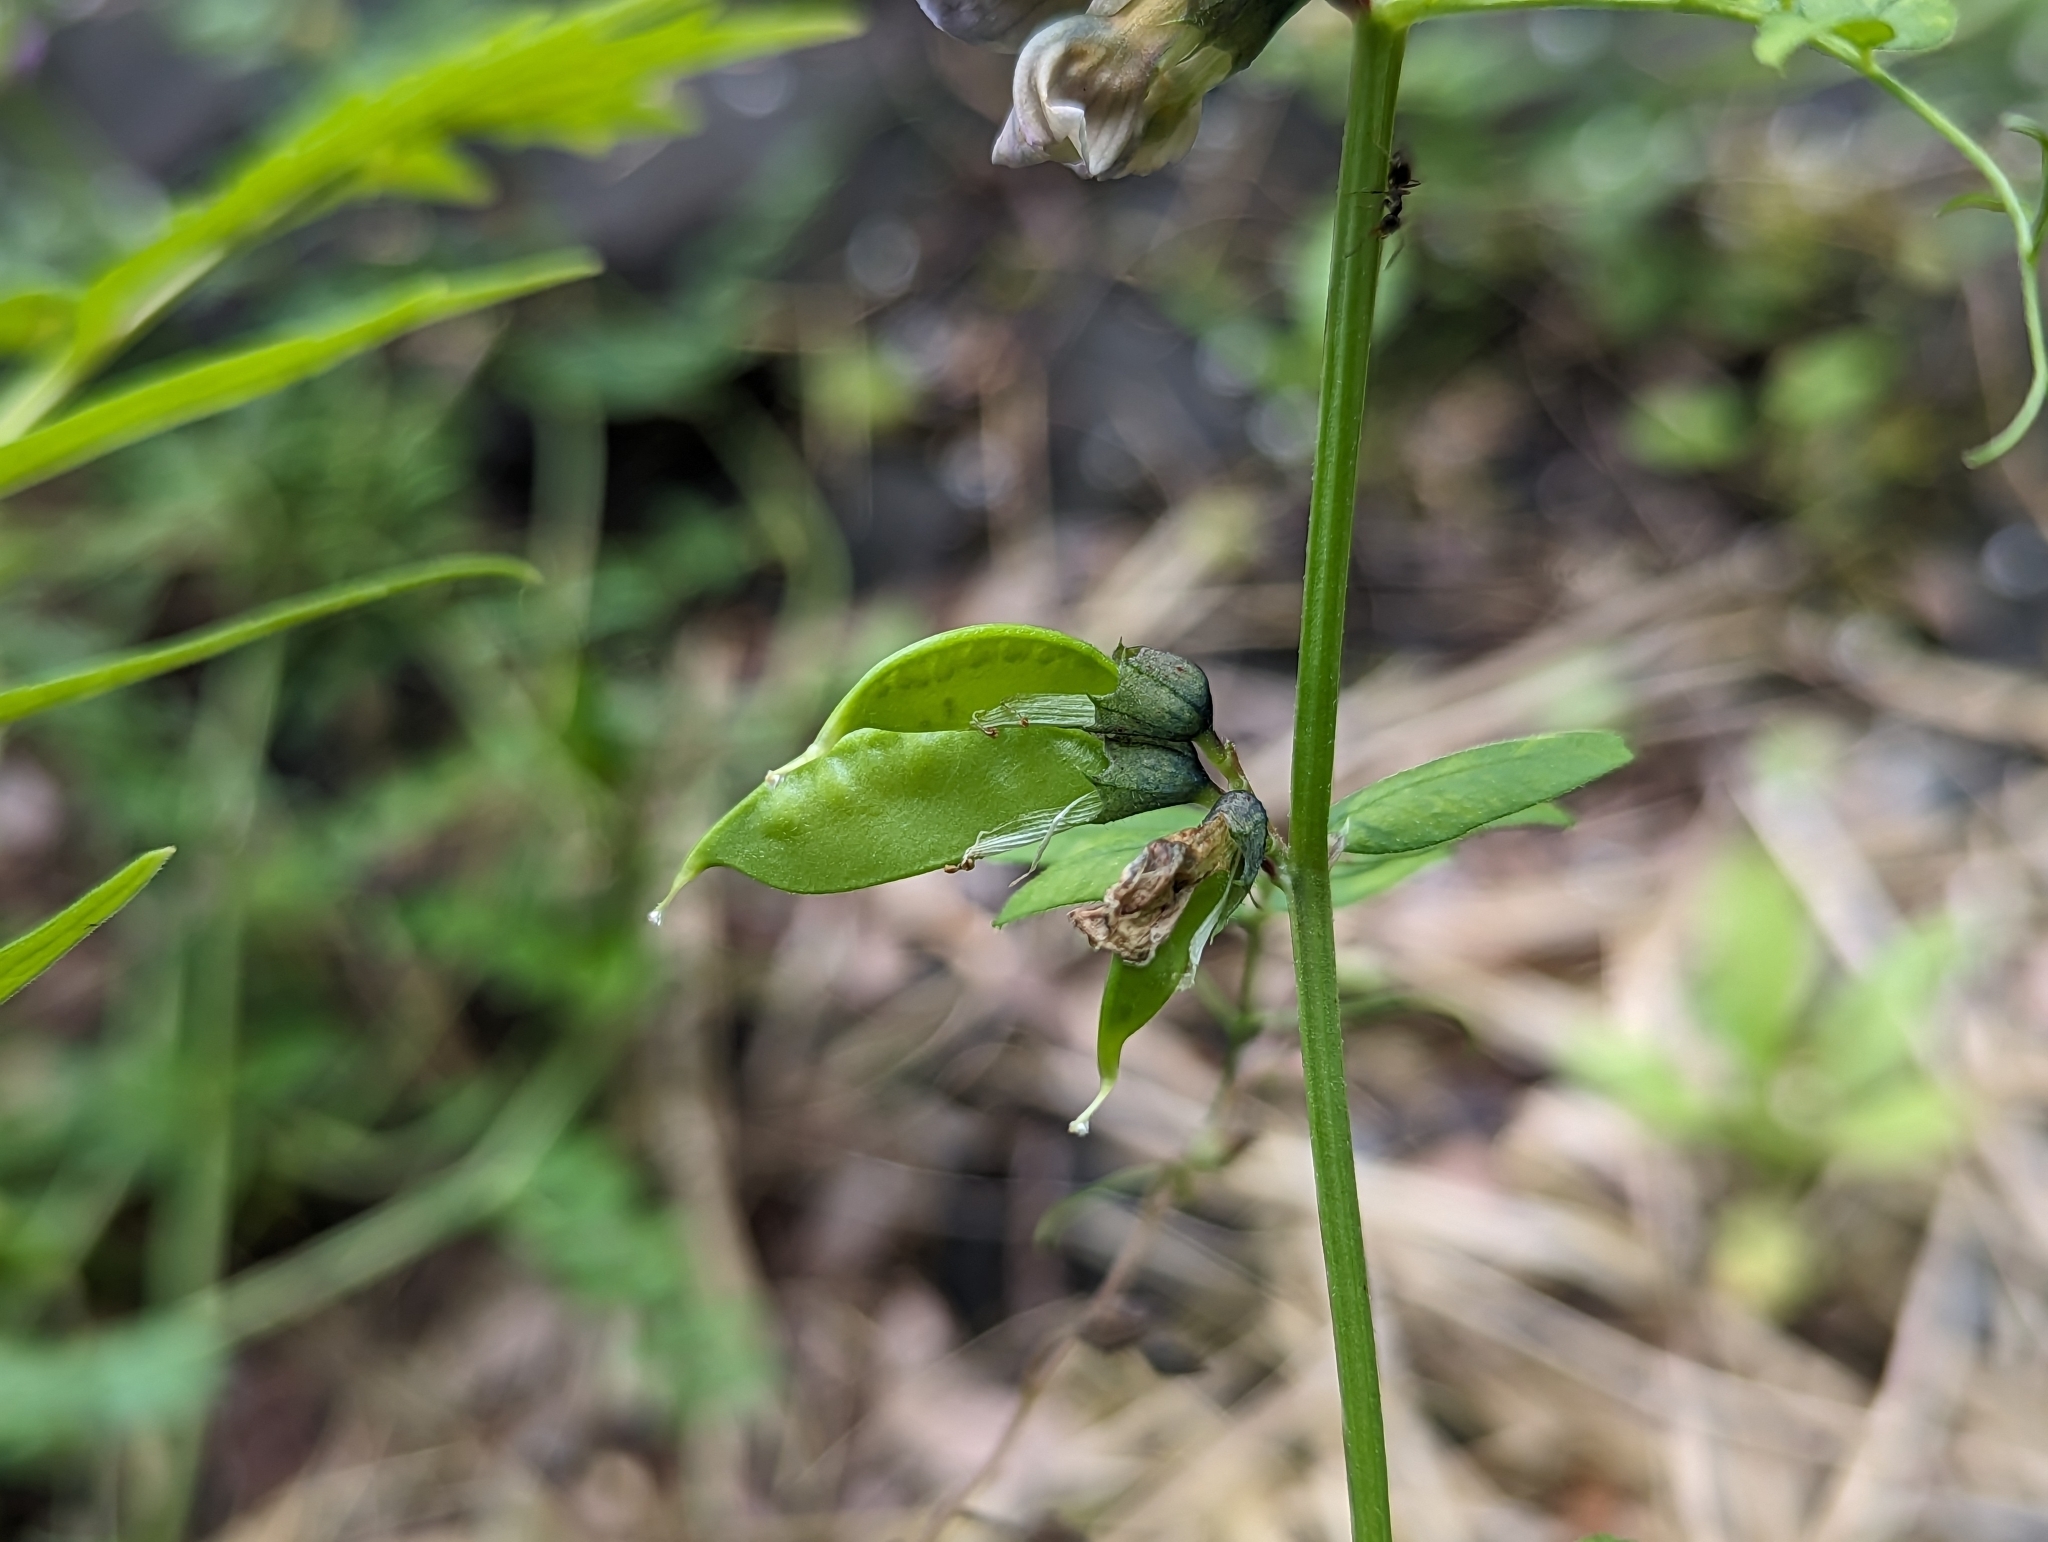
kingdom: Plantae
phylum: Tracheophyta
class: Magnoliopsida
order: Fabales
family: Fabaceae
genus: Vicia
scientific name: Vicia sepium
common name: Bush vetch
